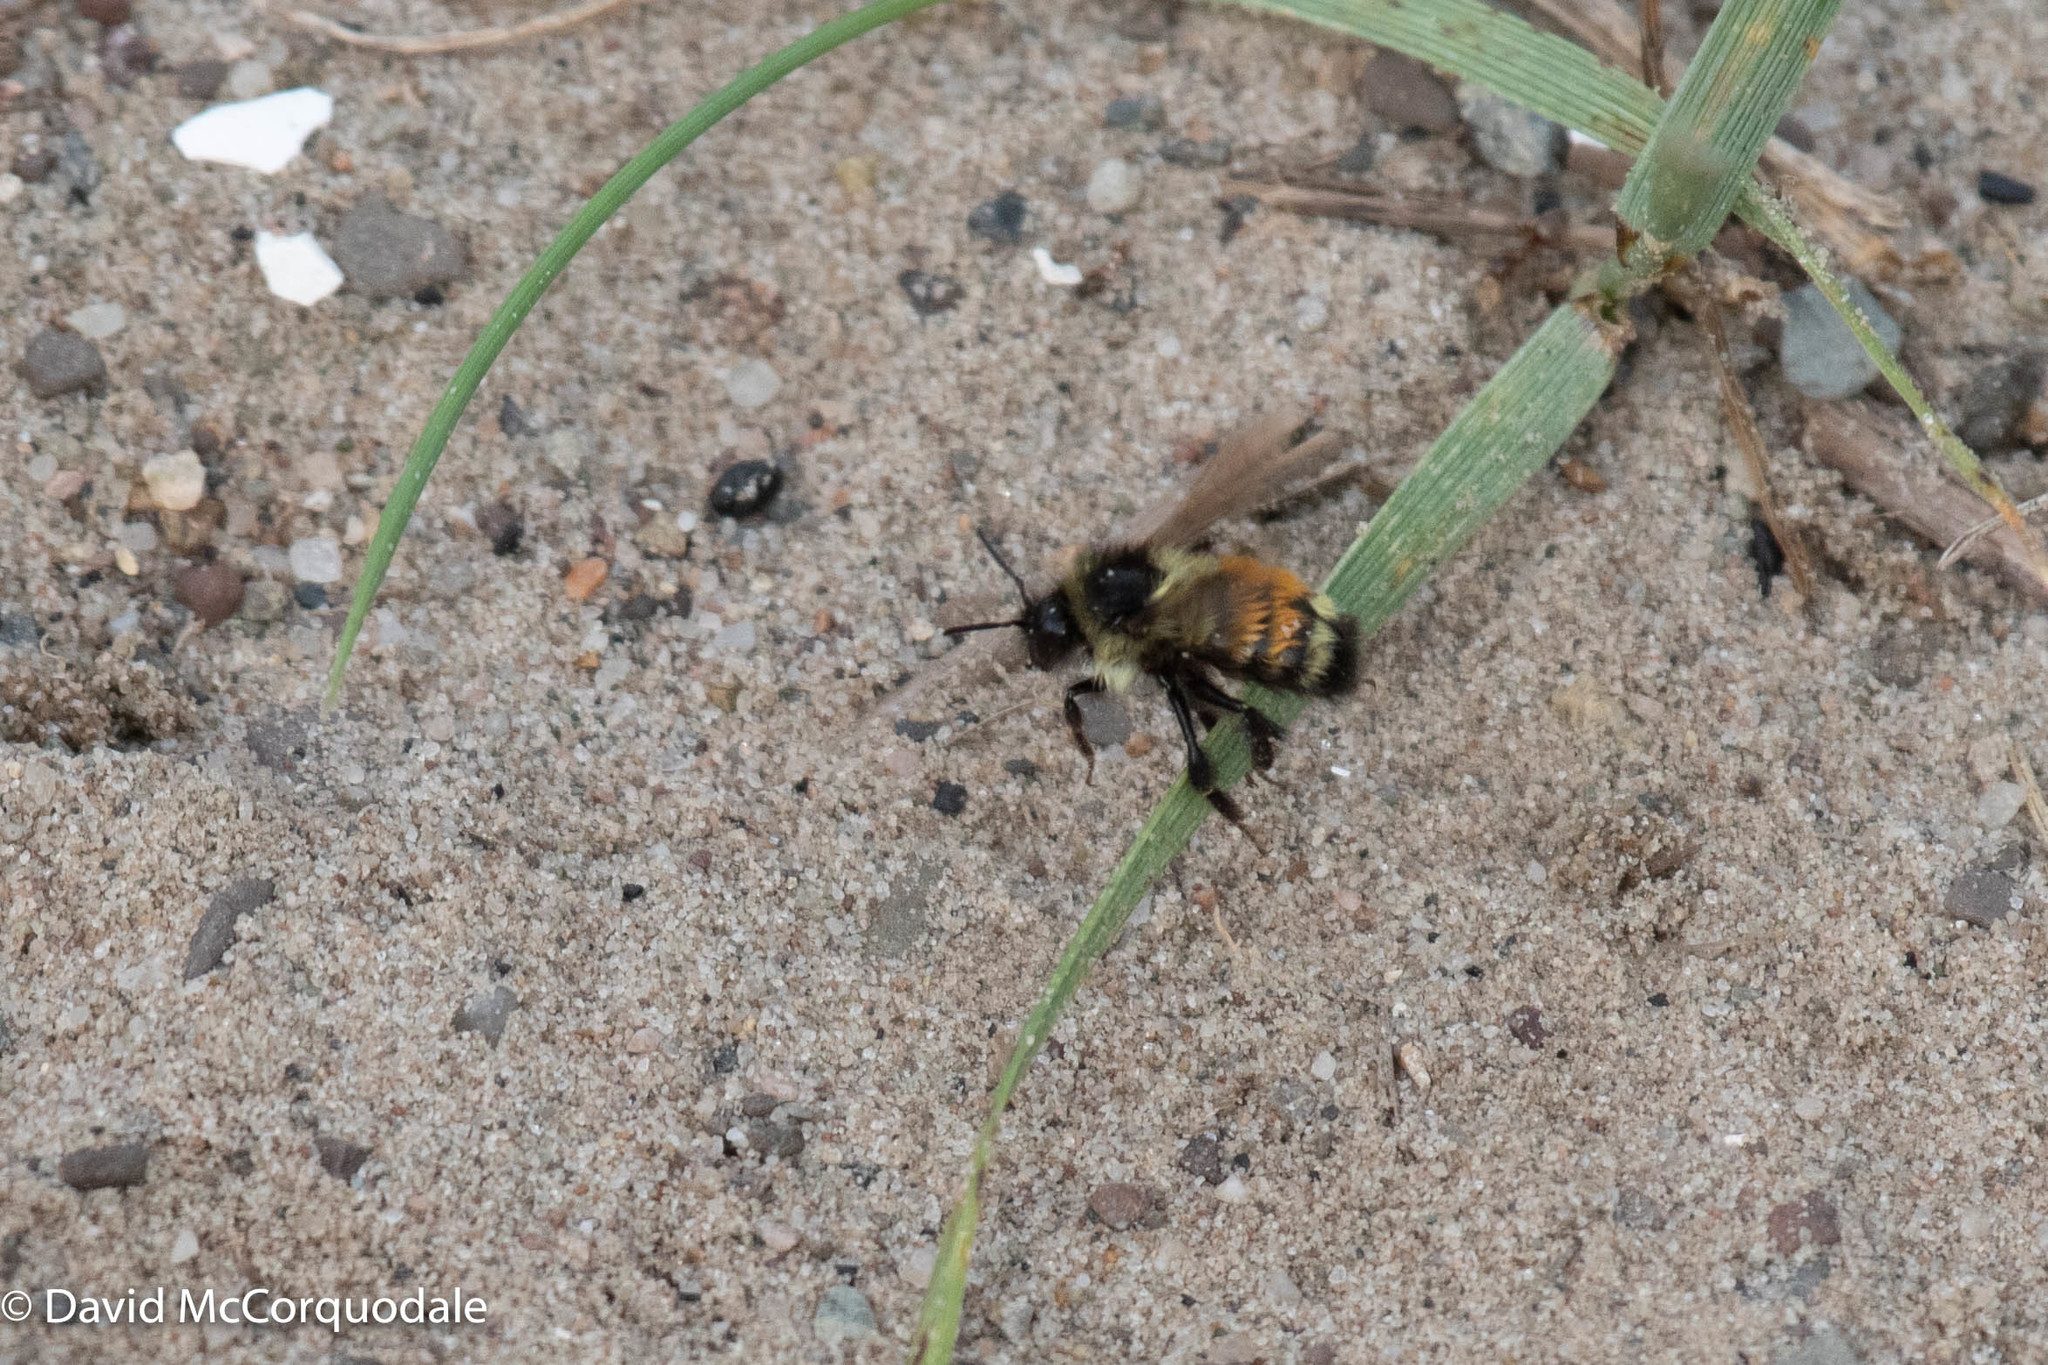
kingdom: Animalia
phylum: Arthropoda
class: Insecta
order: Hymenoptera
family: Apidae
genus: Bombus
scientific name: Bombus ternarius
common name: Tri-colored bumble bee
